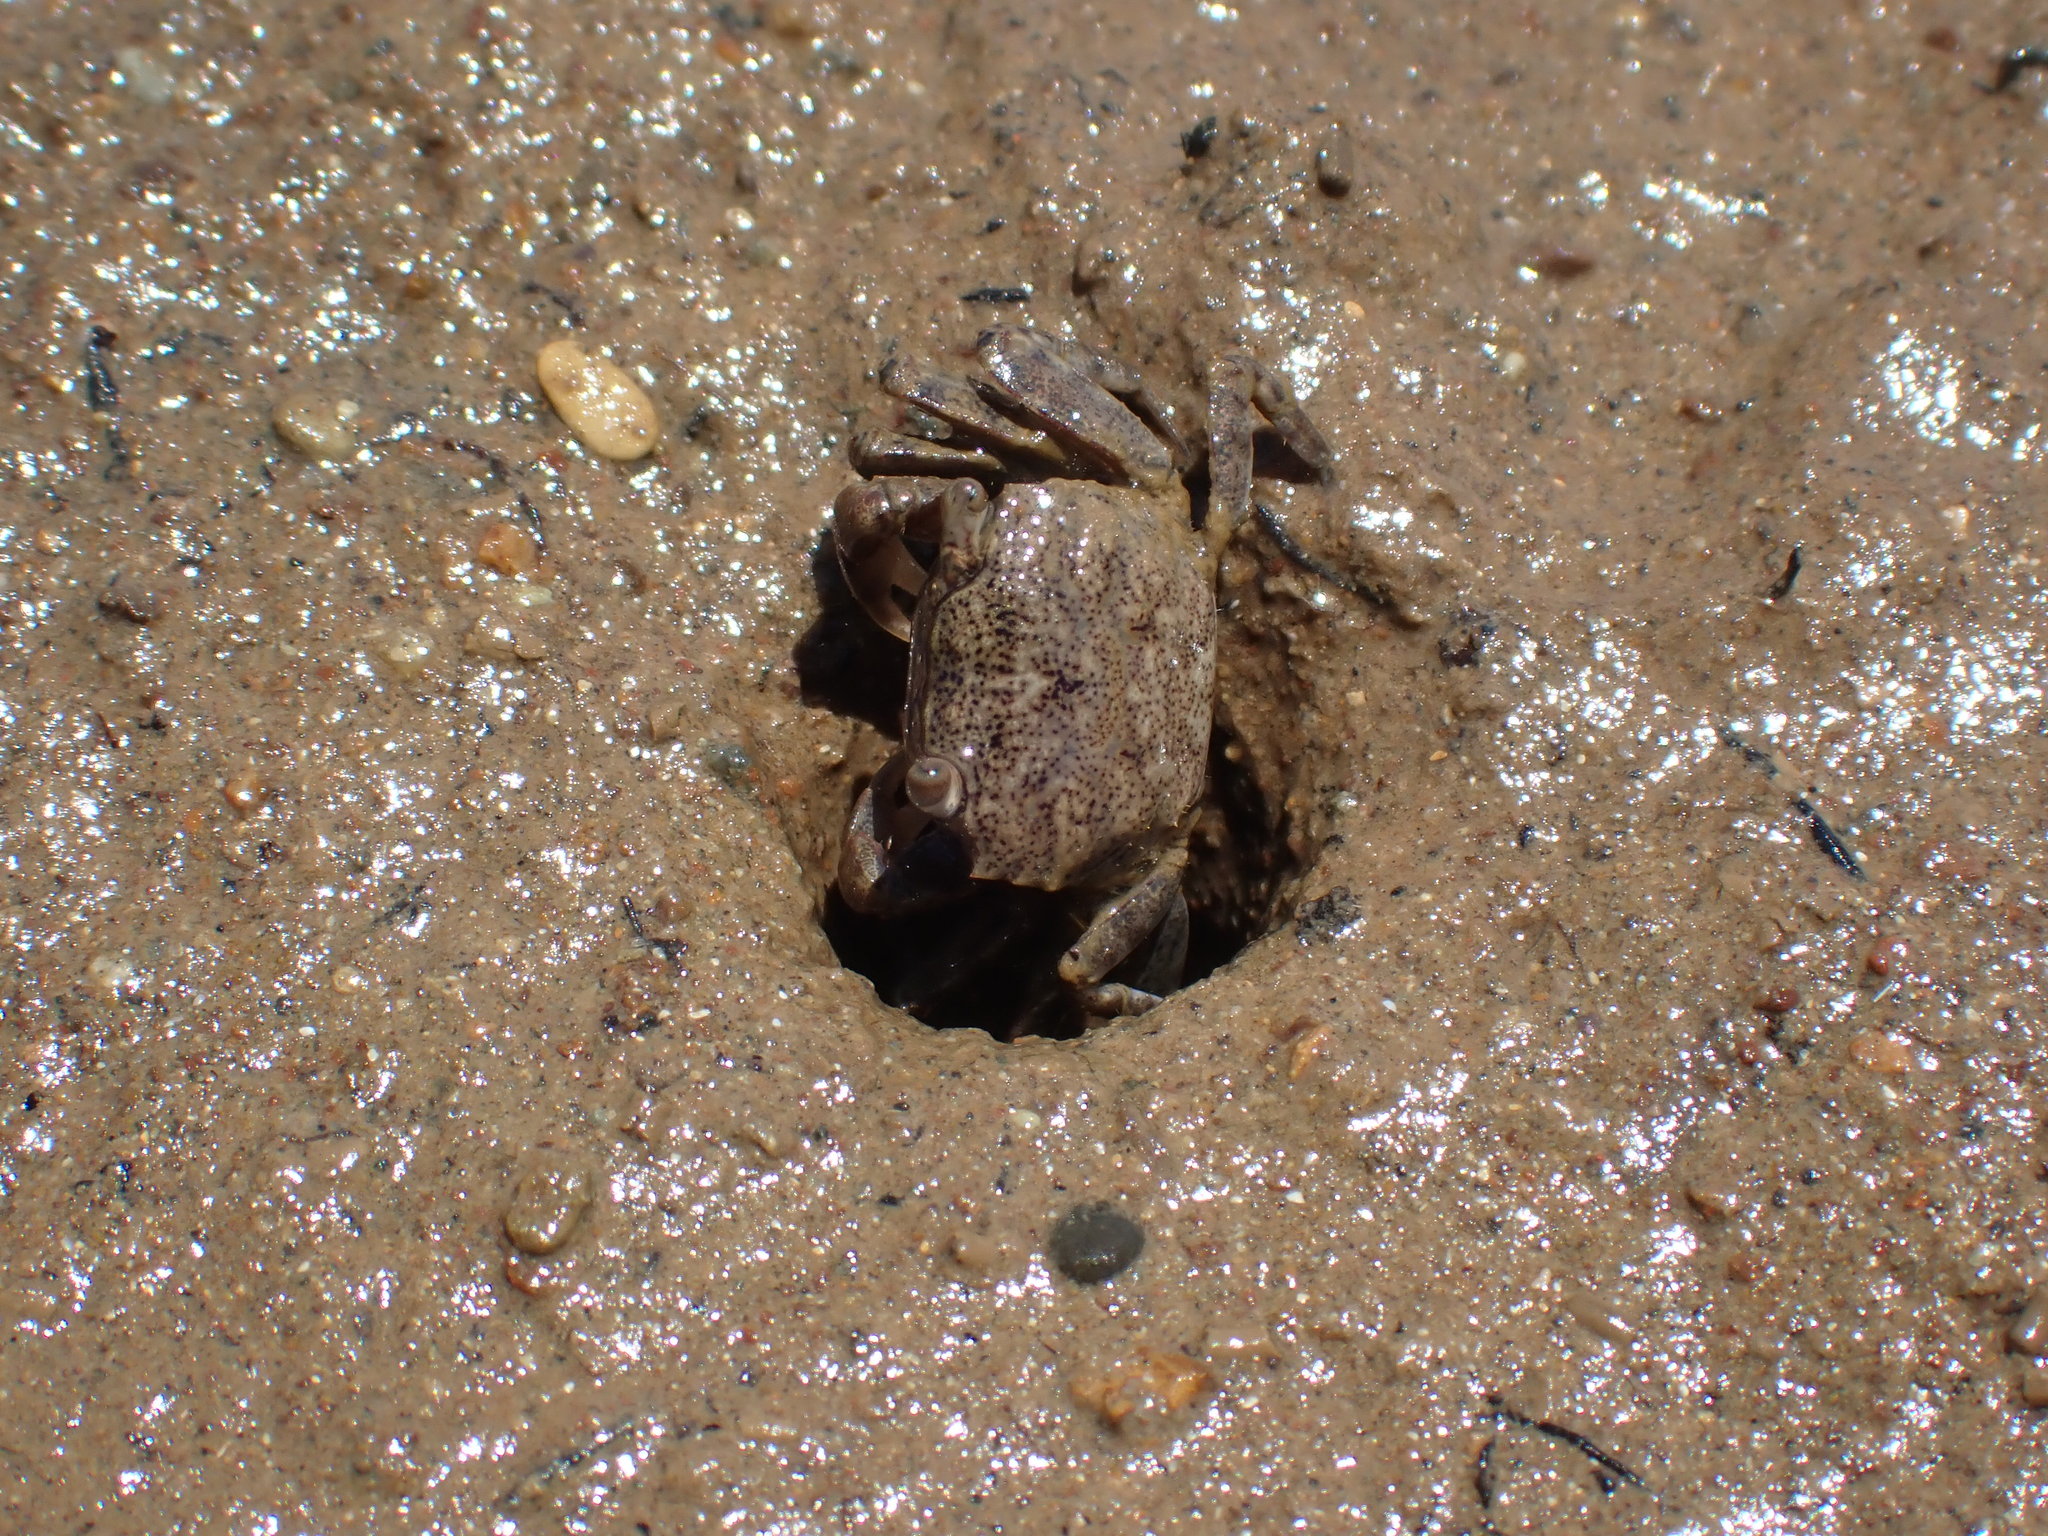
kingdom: Animalia
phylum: Arthropoda
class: Malacostraca
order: Decapoda
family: Varunidae
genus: Austrohelice
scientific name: Austrohelice crassa
